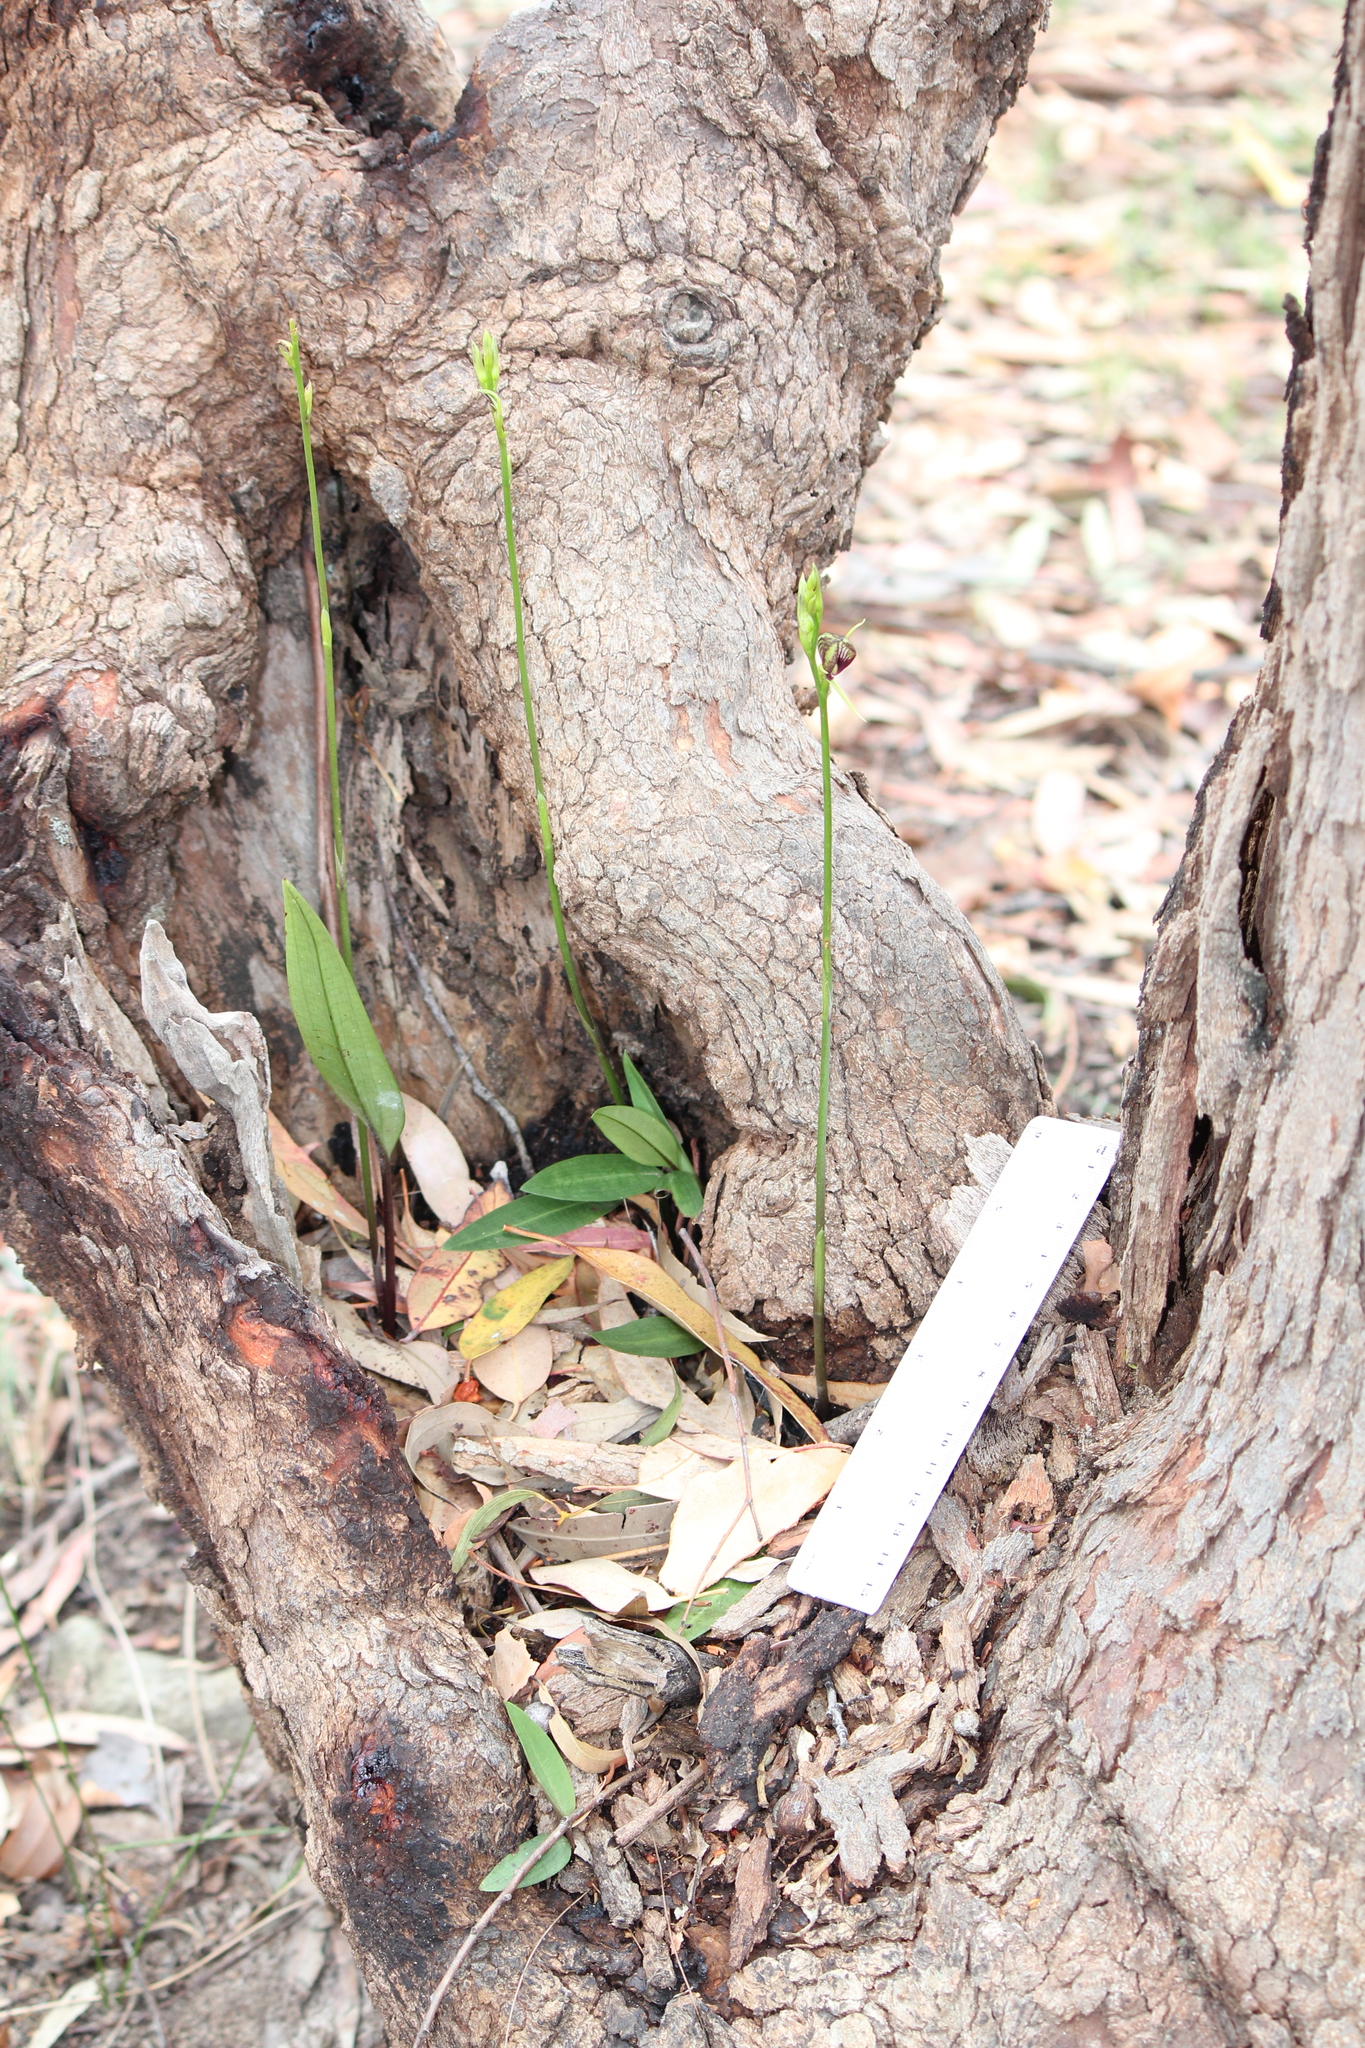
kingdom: Plantae
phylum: Tracheophyta
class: Liliopsida
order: Asparagales
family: Orchidaceae
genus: Cryptostylis
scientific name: Cryptostylis erecta
